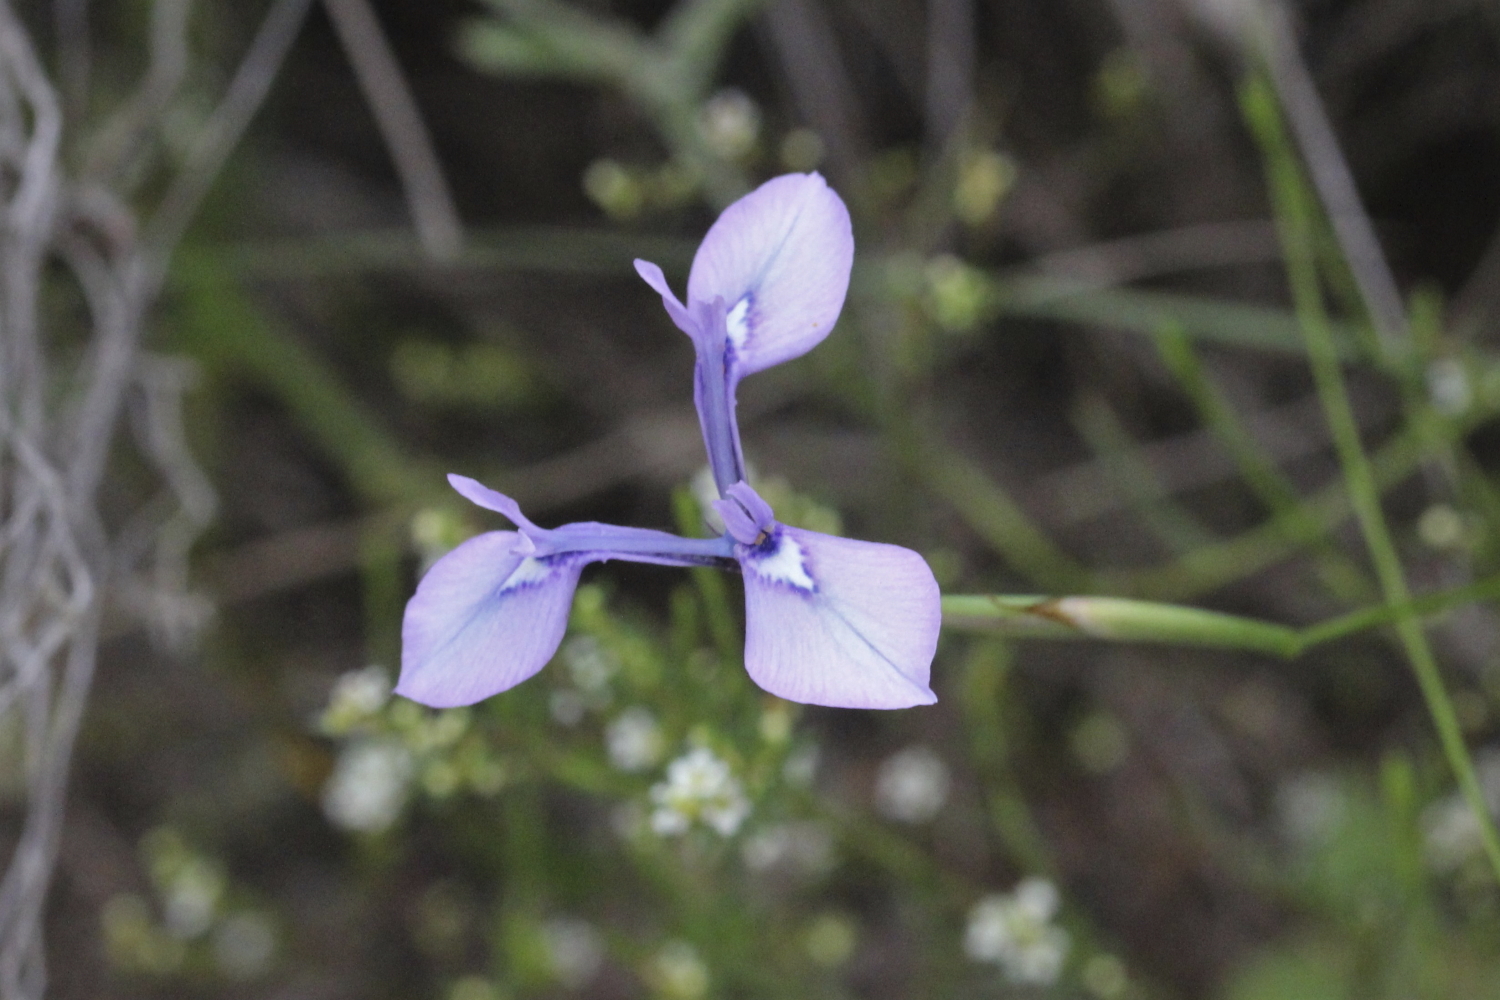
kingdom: Plantae
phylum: Tracheophyta
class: Liliopsida
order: Asparagales
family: Iridaceae
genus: Moraea
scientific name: Moraea tripetala
